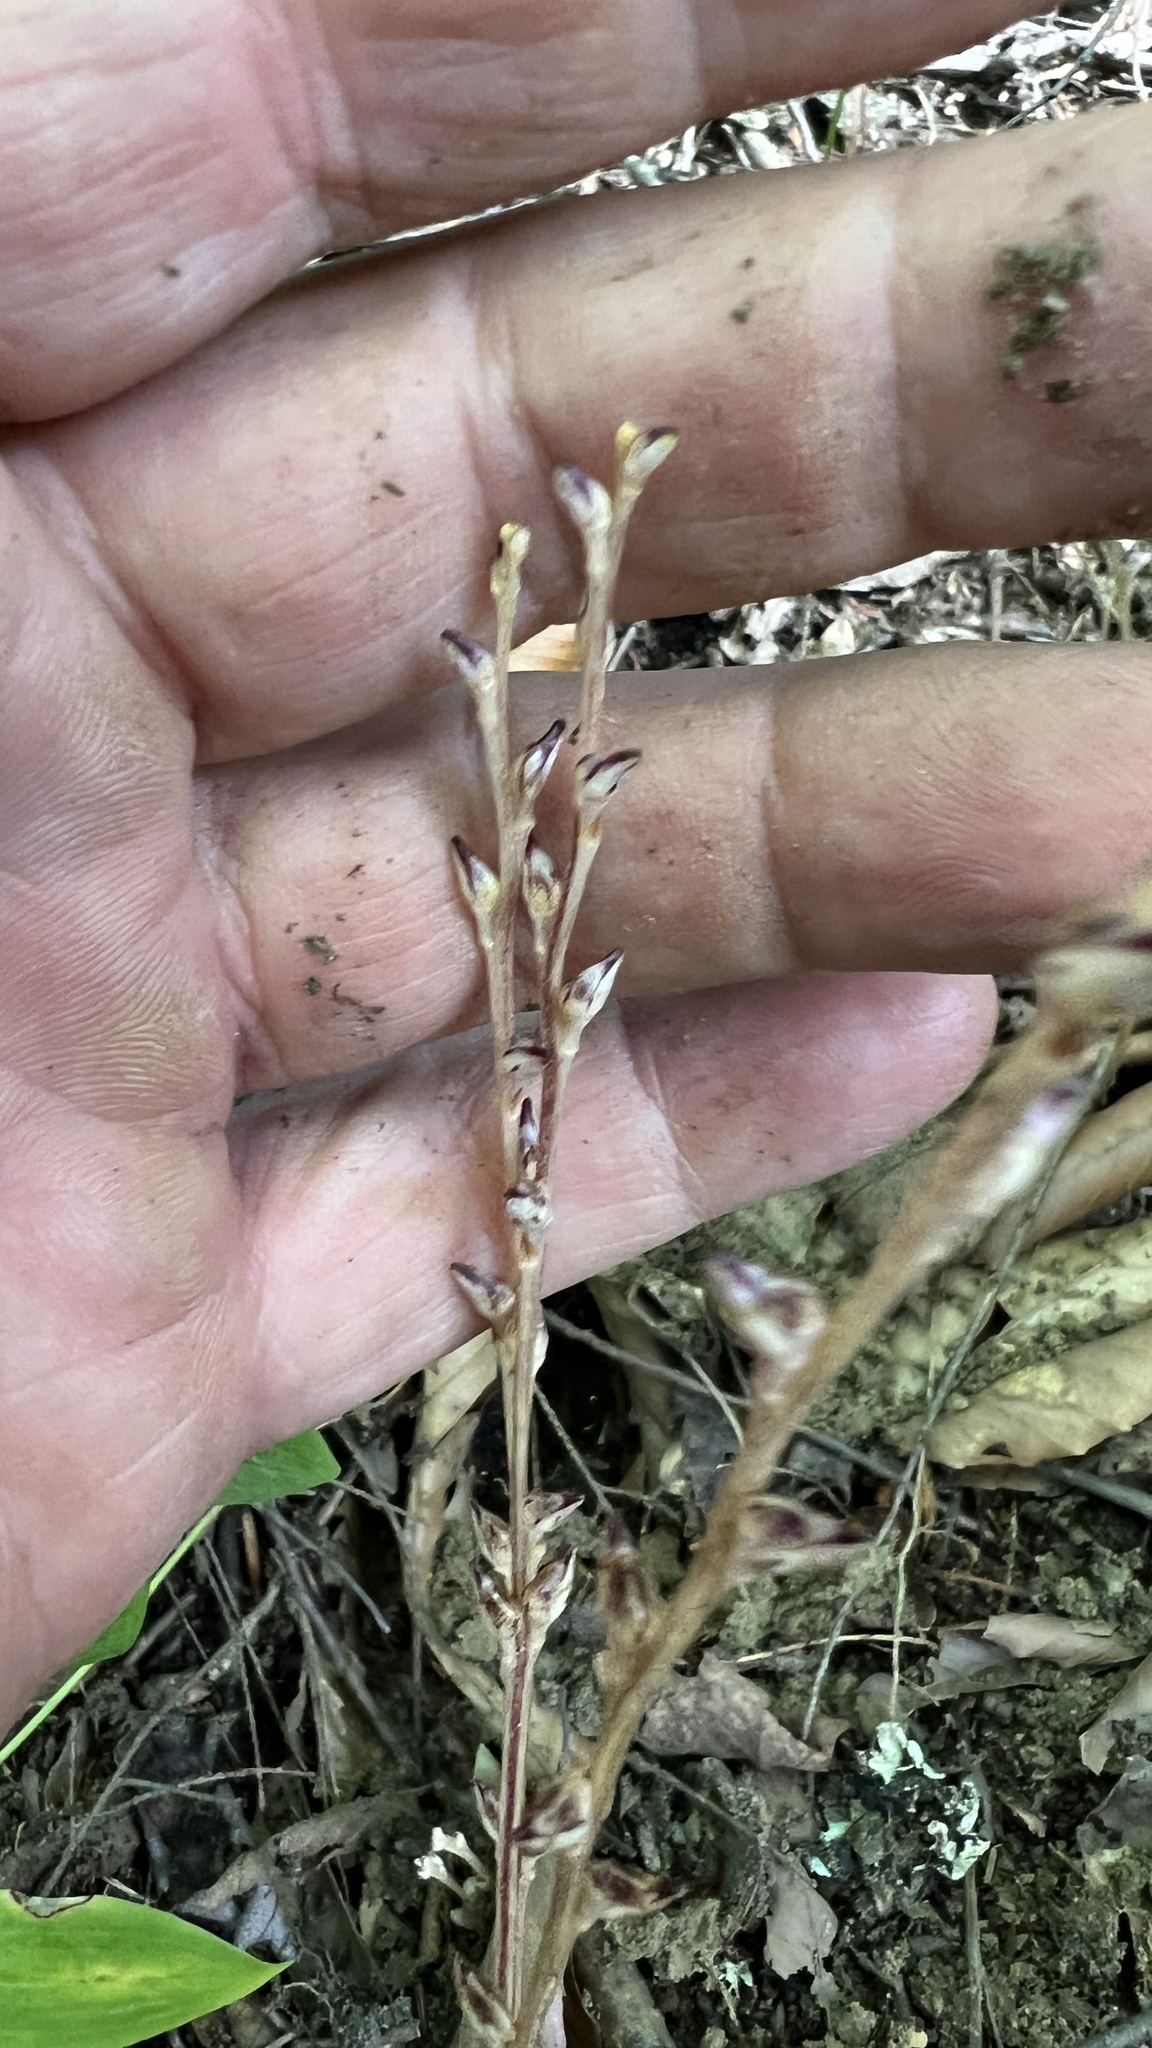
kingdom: Plantae
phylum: Tracheophyta
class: Magnoliopsida
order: Lamiales
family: Orobanchaceae
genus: Epifagus
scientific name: Epifagus virginiana
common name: Beechdrops
